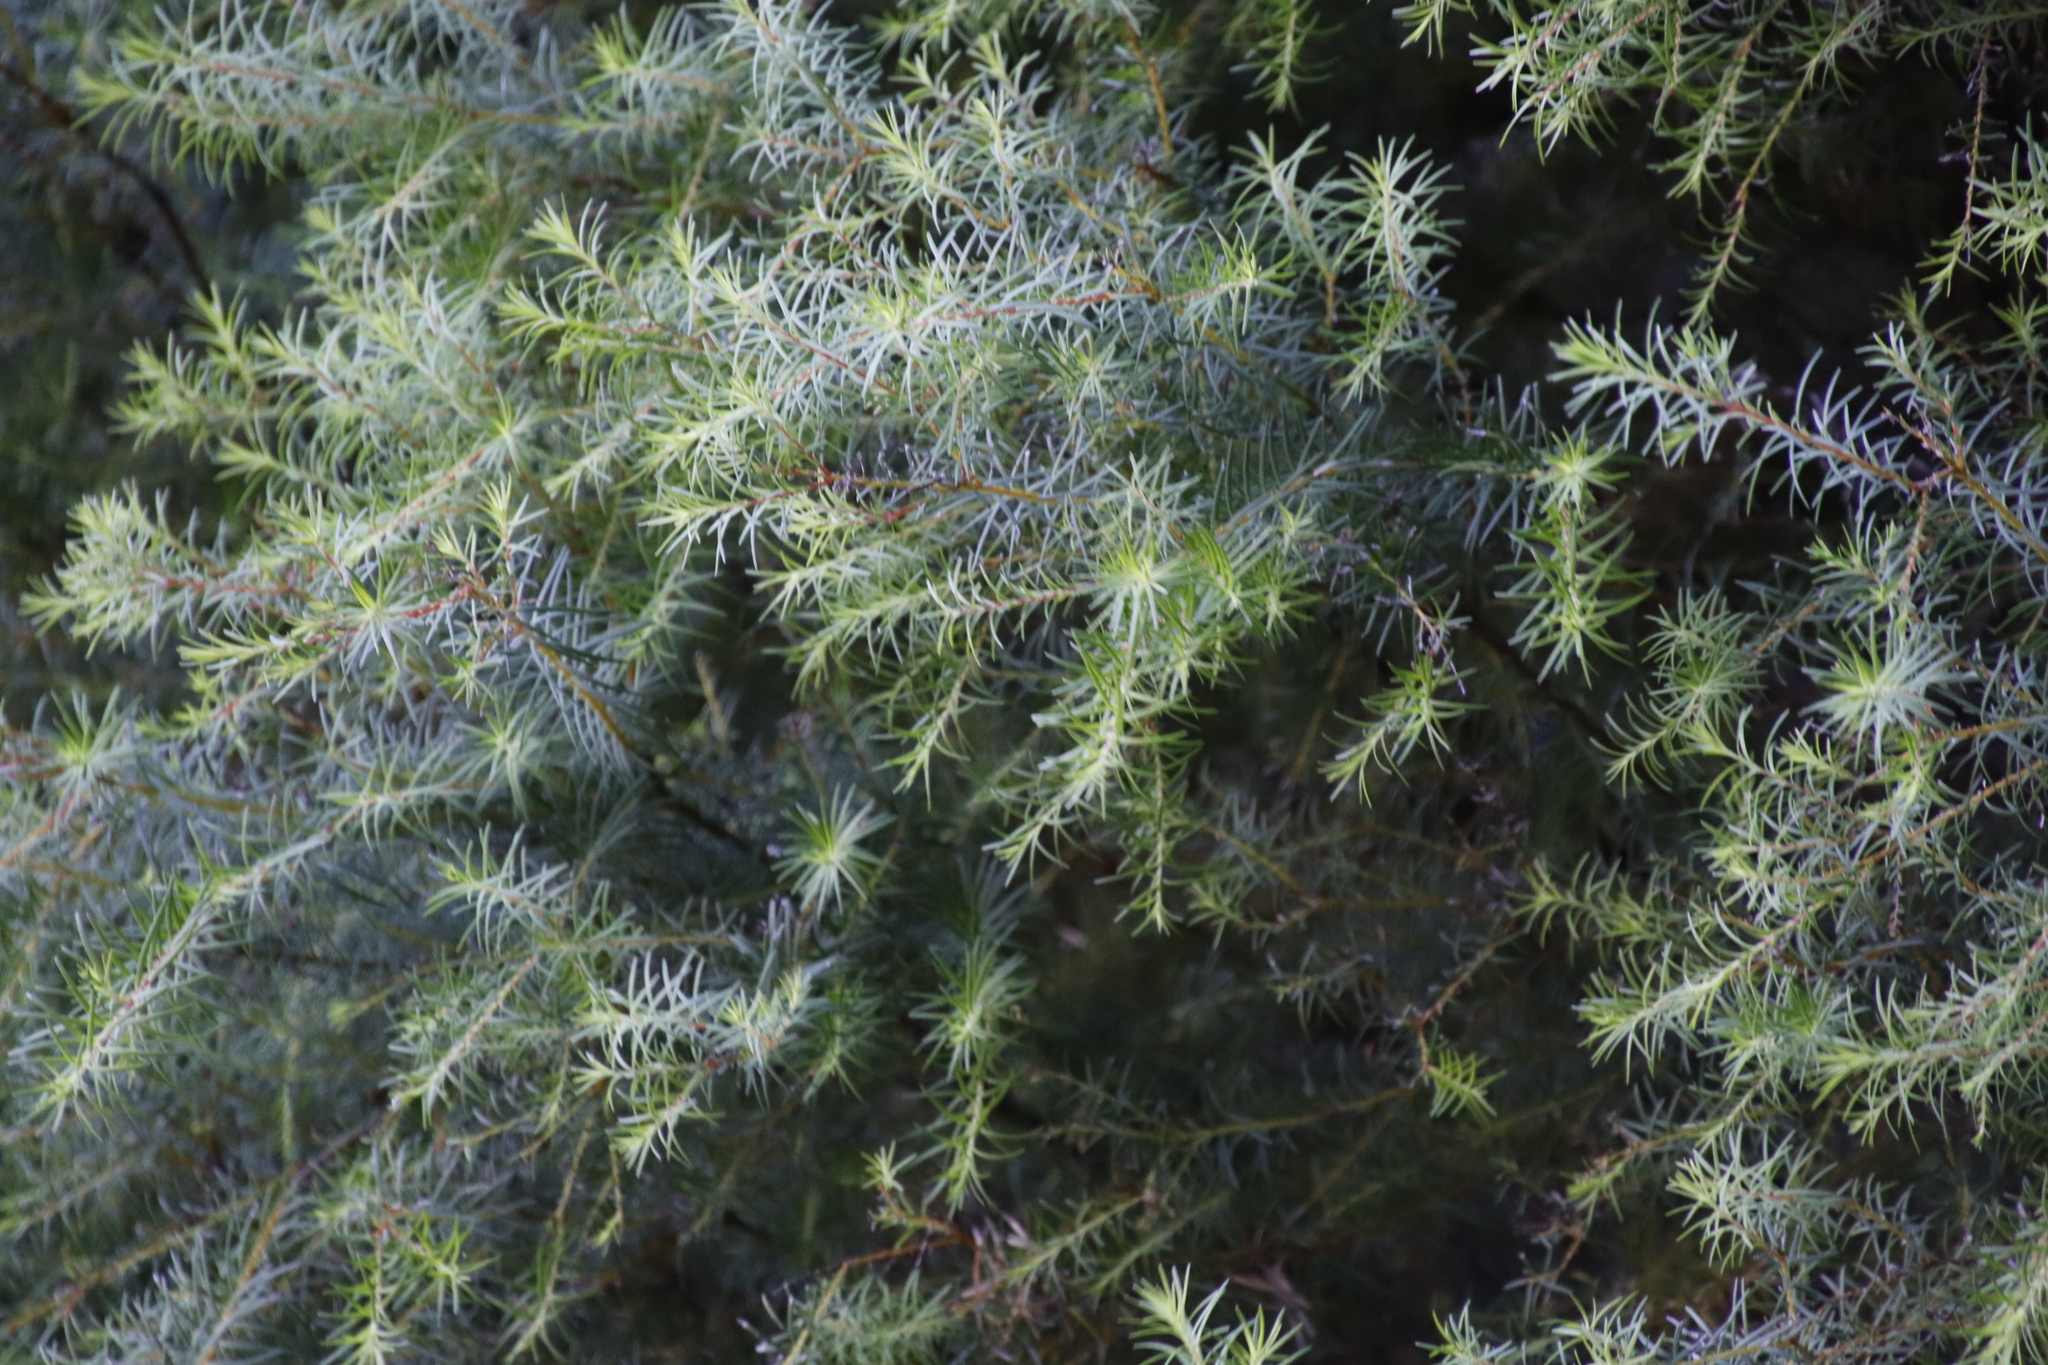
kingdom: Plantae
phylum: Tracheophyta
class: Magnoliopsida
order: Bruniales
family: Bruniaceae
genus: Brunia
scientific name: Brunia africana
